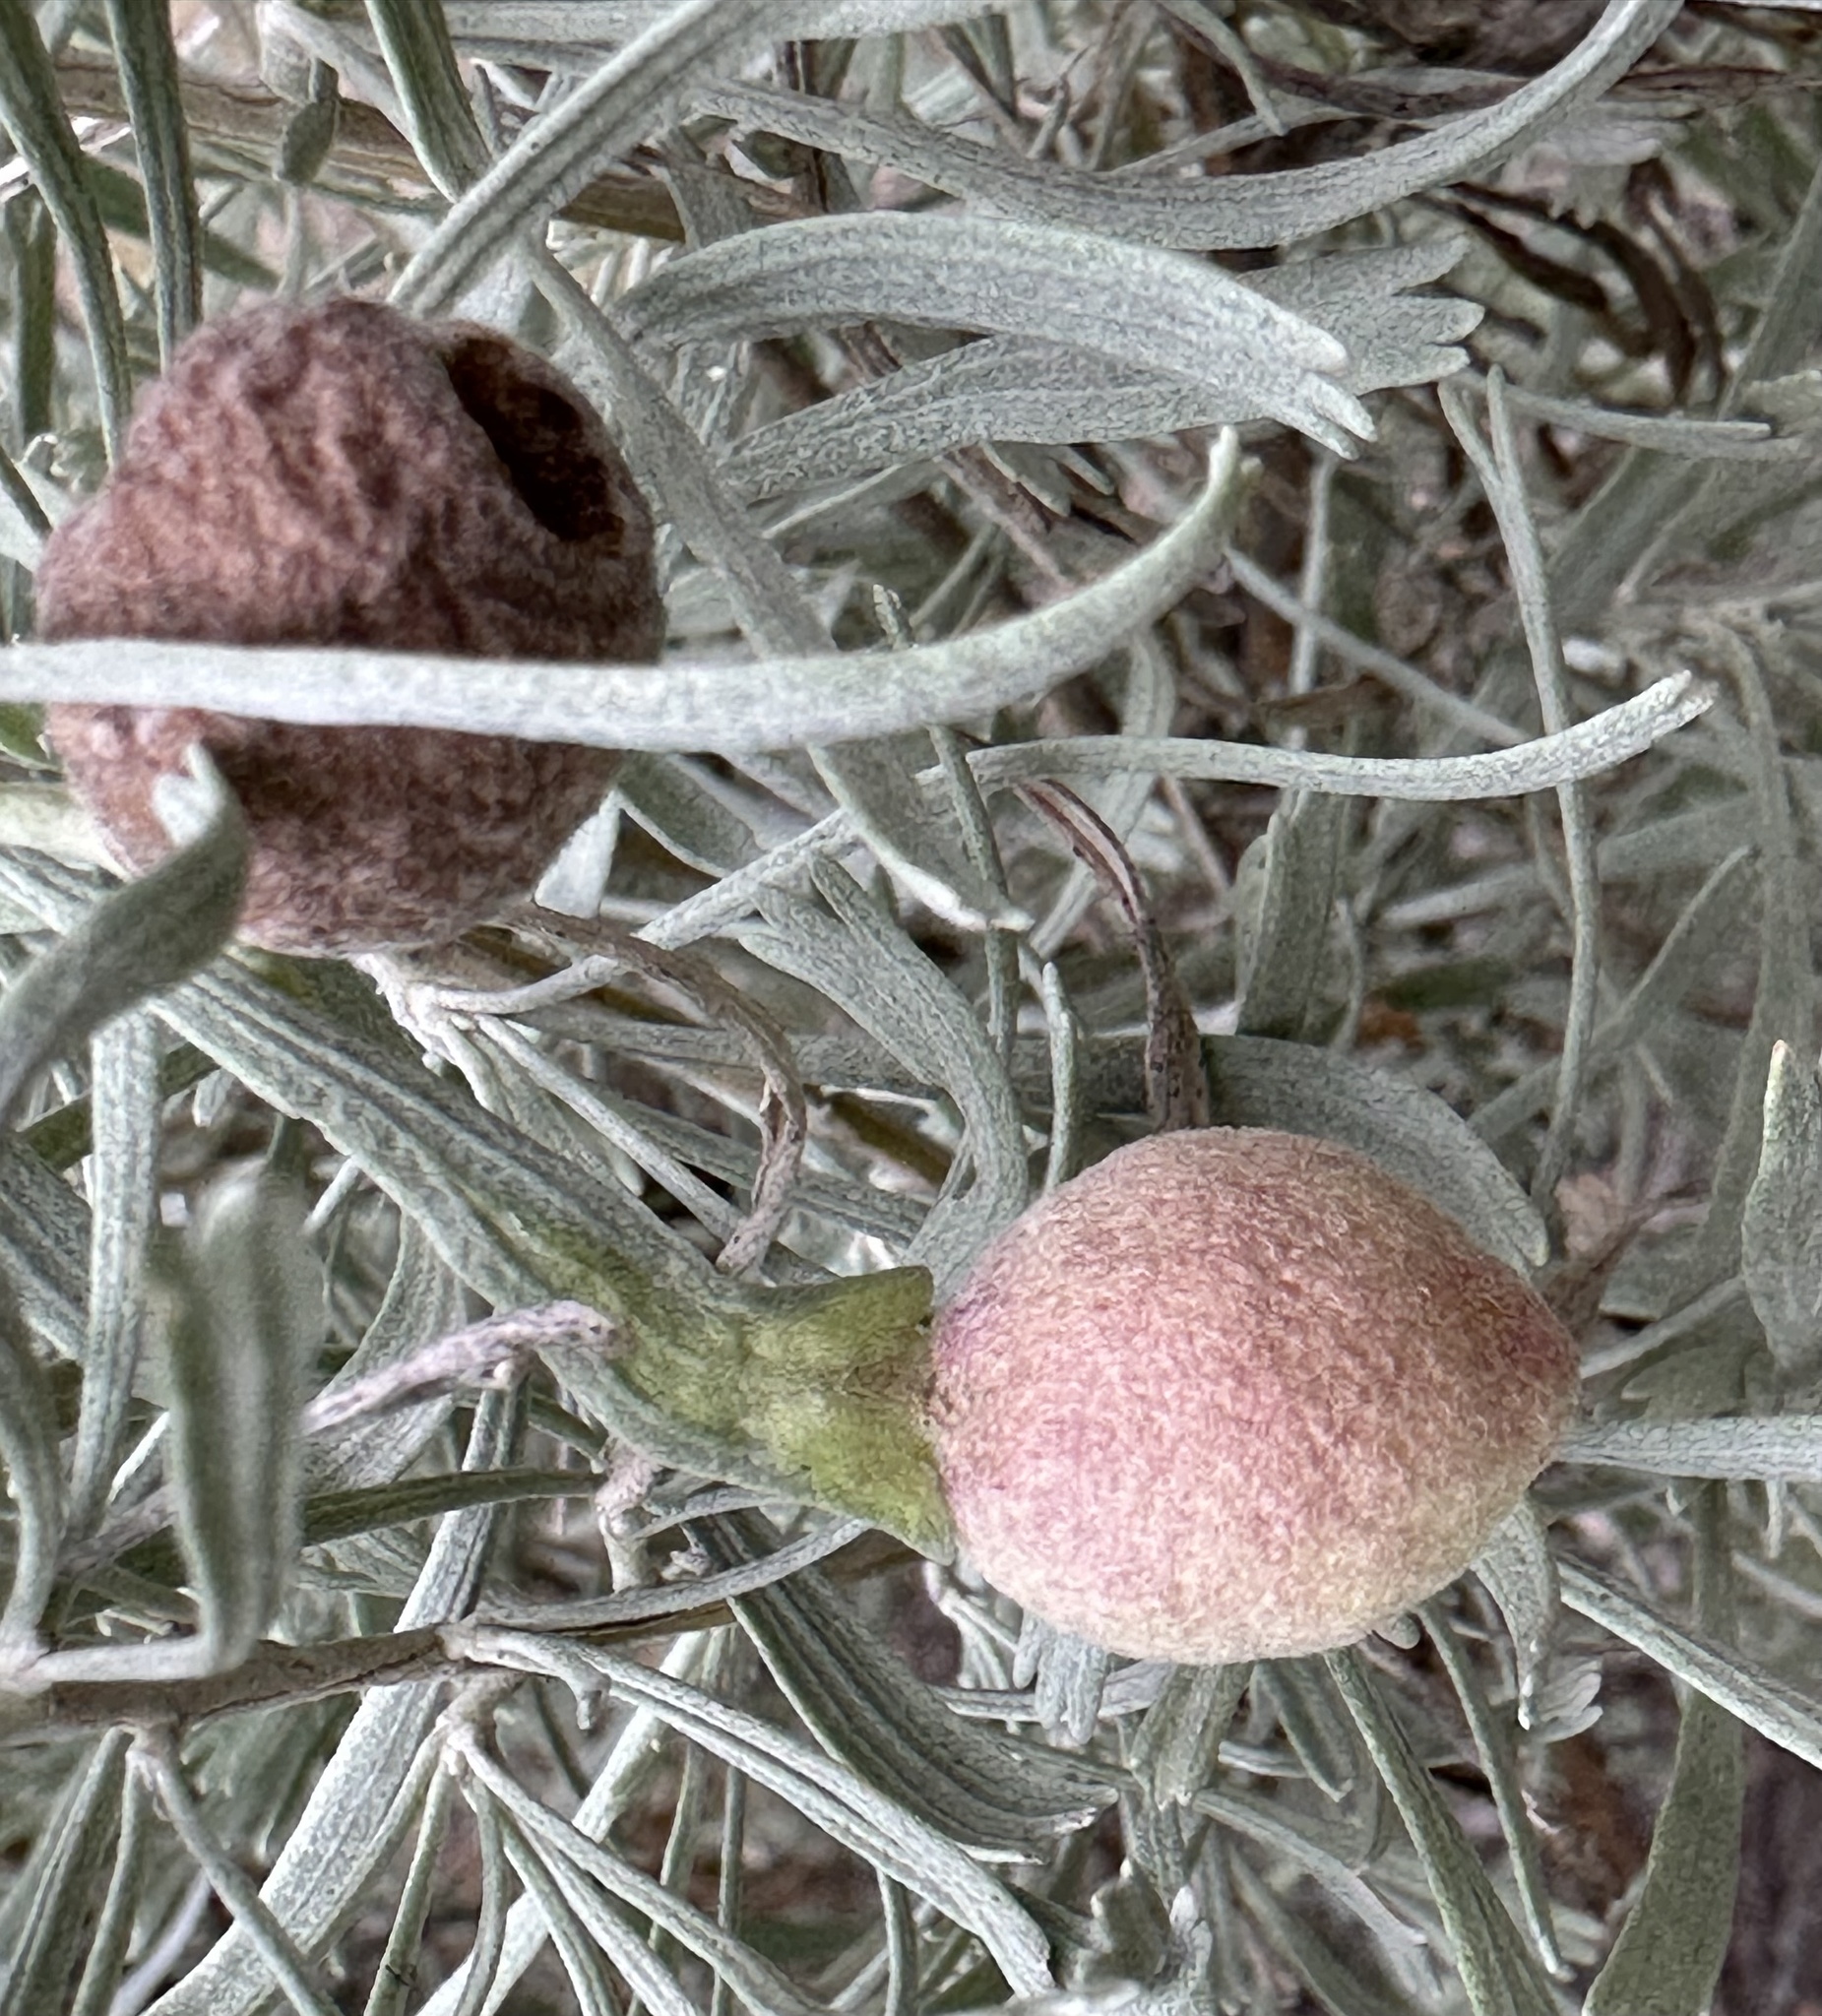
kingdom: Animalia
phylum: Arthropoda
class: Insecta
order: Diptera
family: Cecidomyiidae
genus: Rhopalomyia
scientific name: Rhopalomyia pomum
